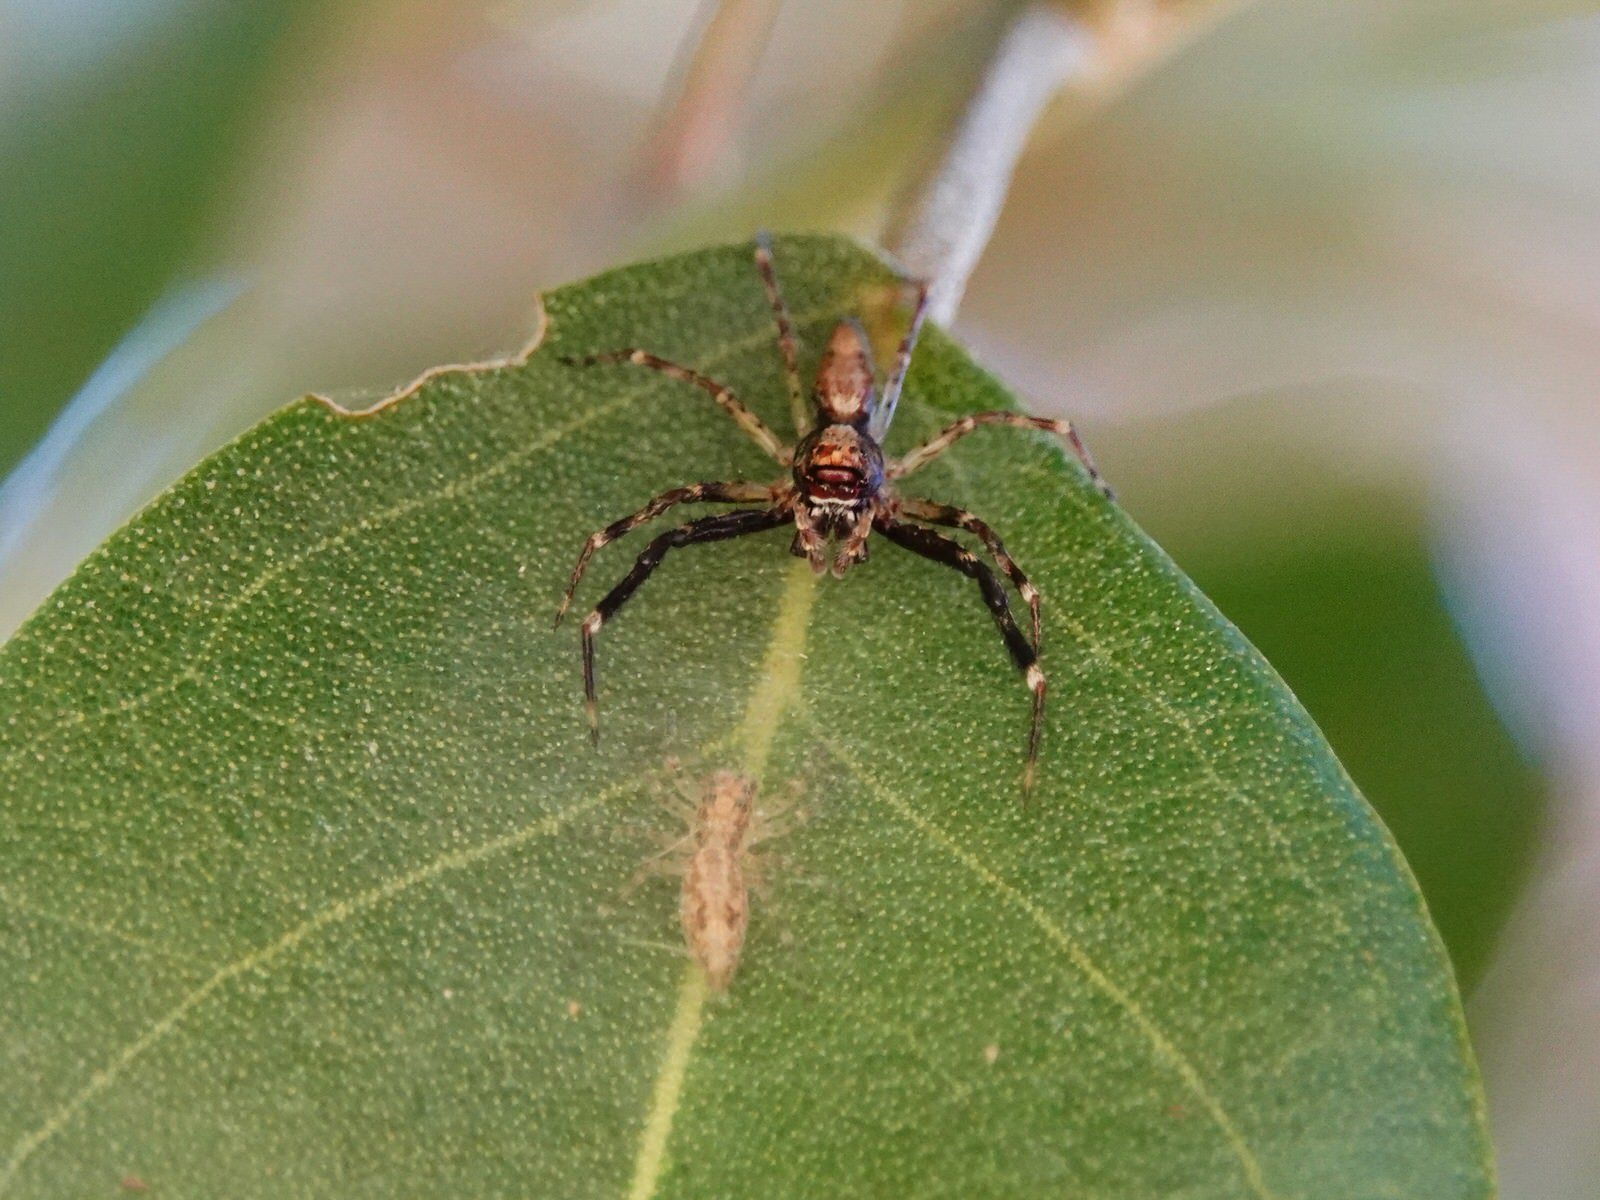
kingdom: Animalia
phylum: Arthropoda
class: Arachnida
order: Araneae
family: Salticidae
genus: Helpis
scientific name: Helpis minitabunda
